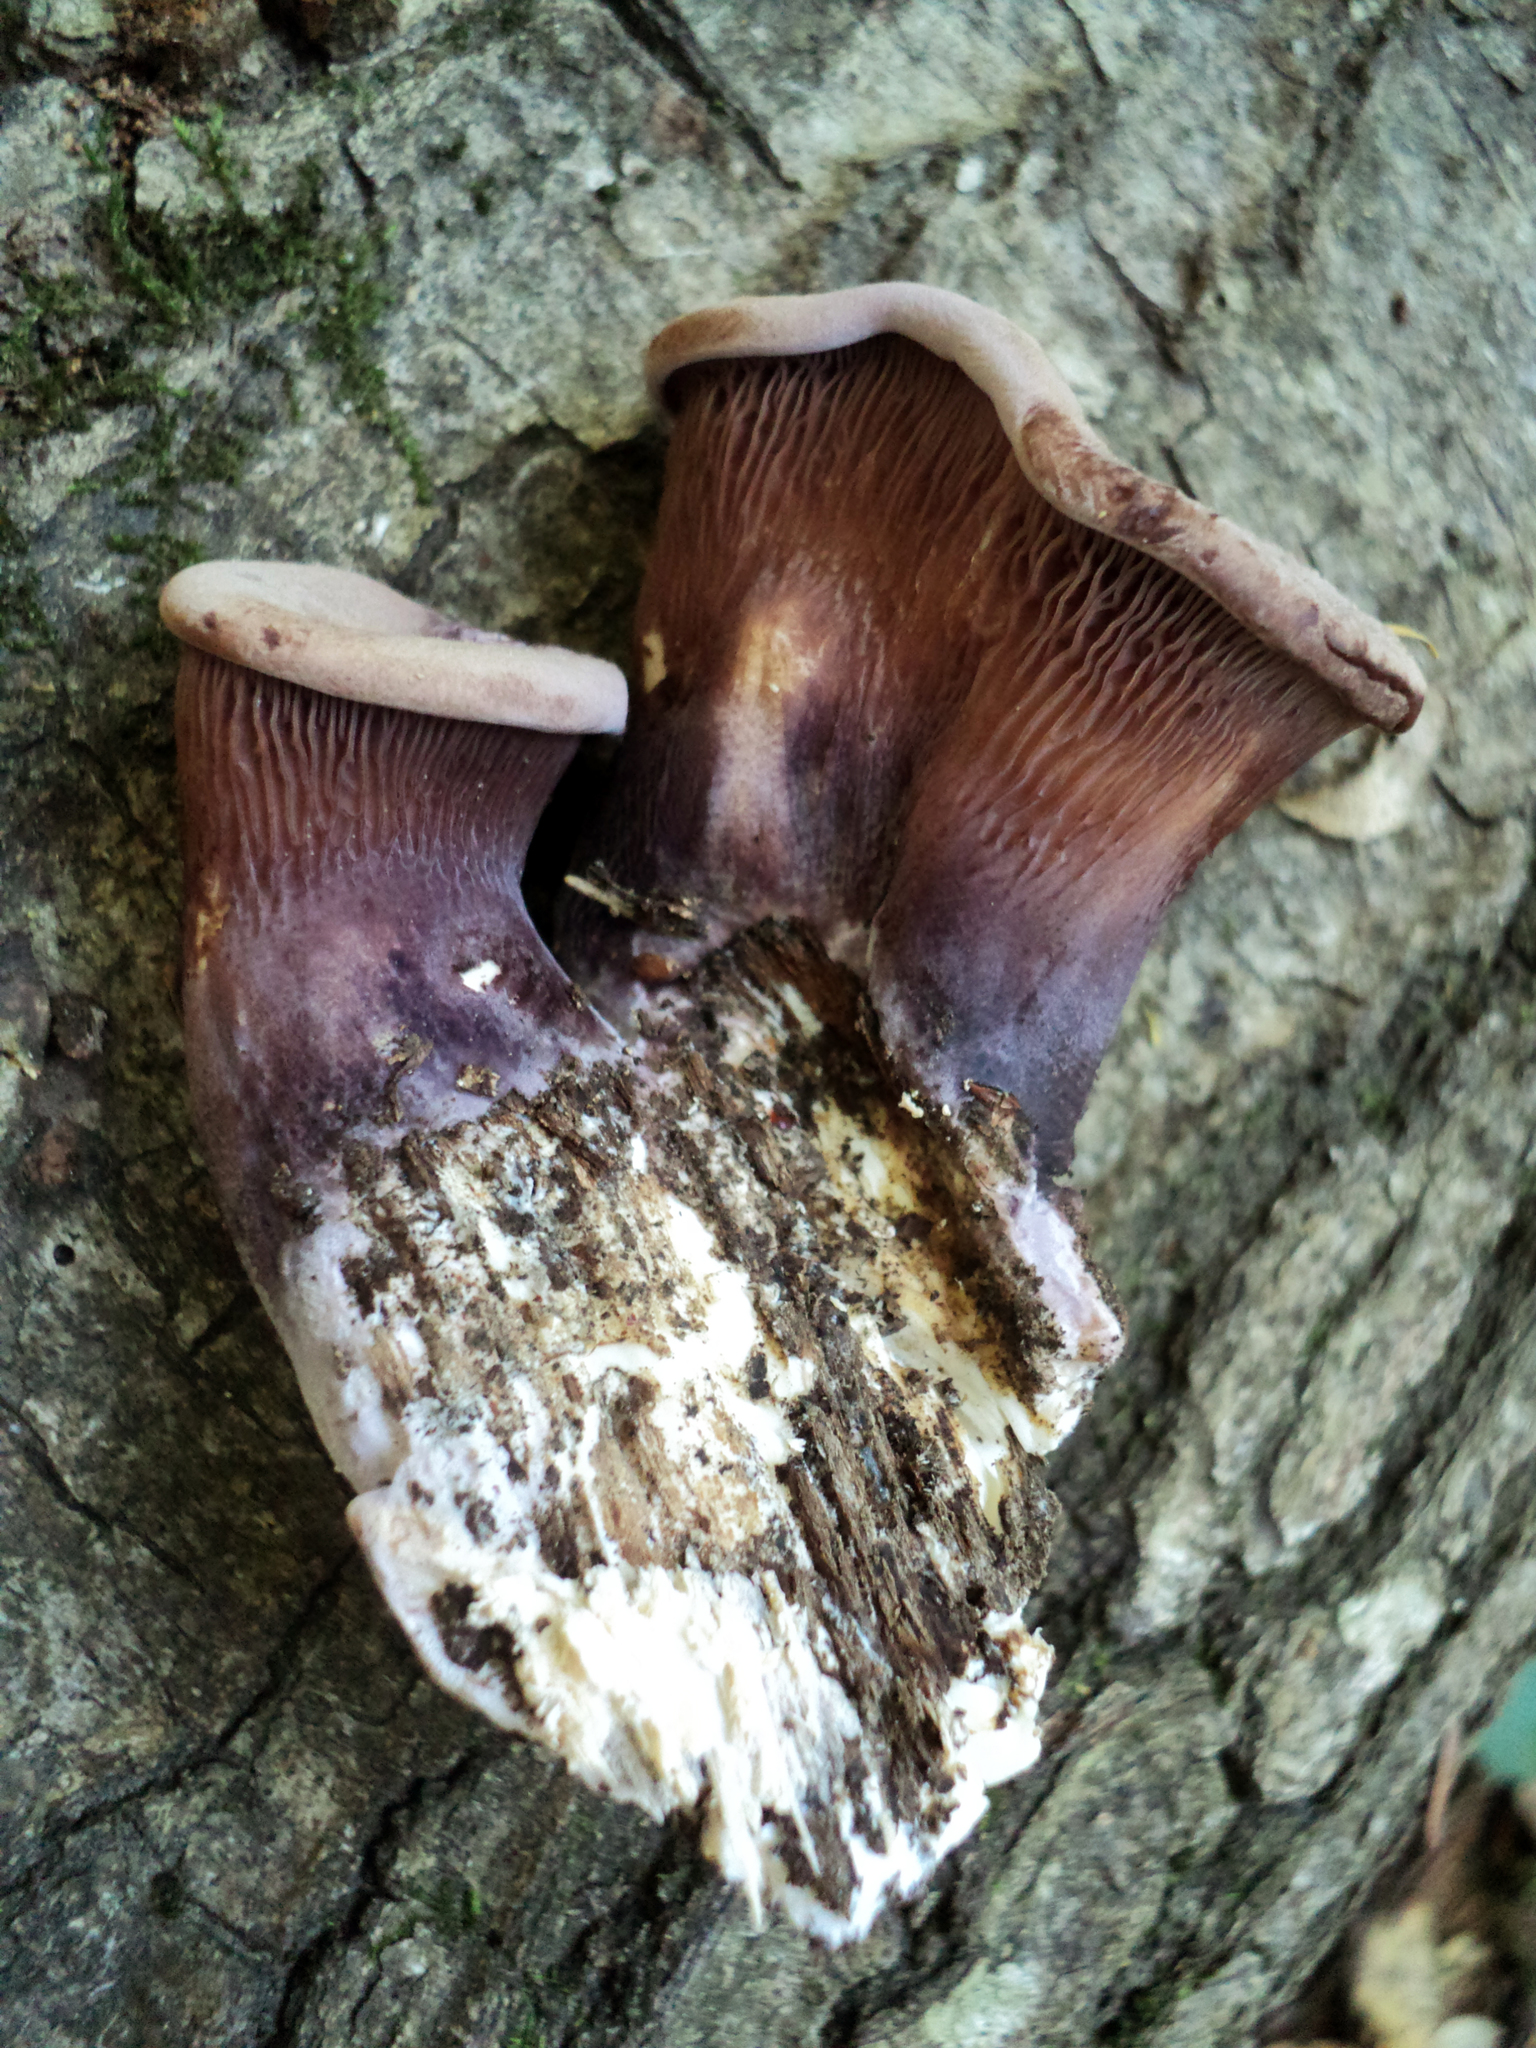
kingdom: Fungi
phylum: Basidiomycota
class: Agaricomycetes
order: Polyporales
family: Panaceae
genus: Panus
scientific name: Panus conchatus
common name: Lilac oysterling
